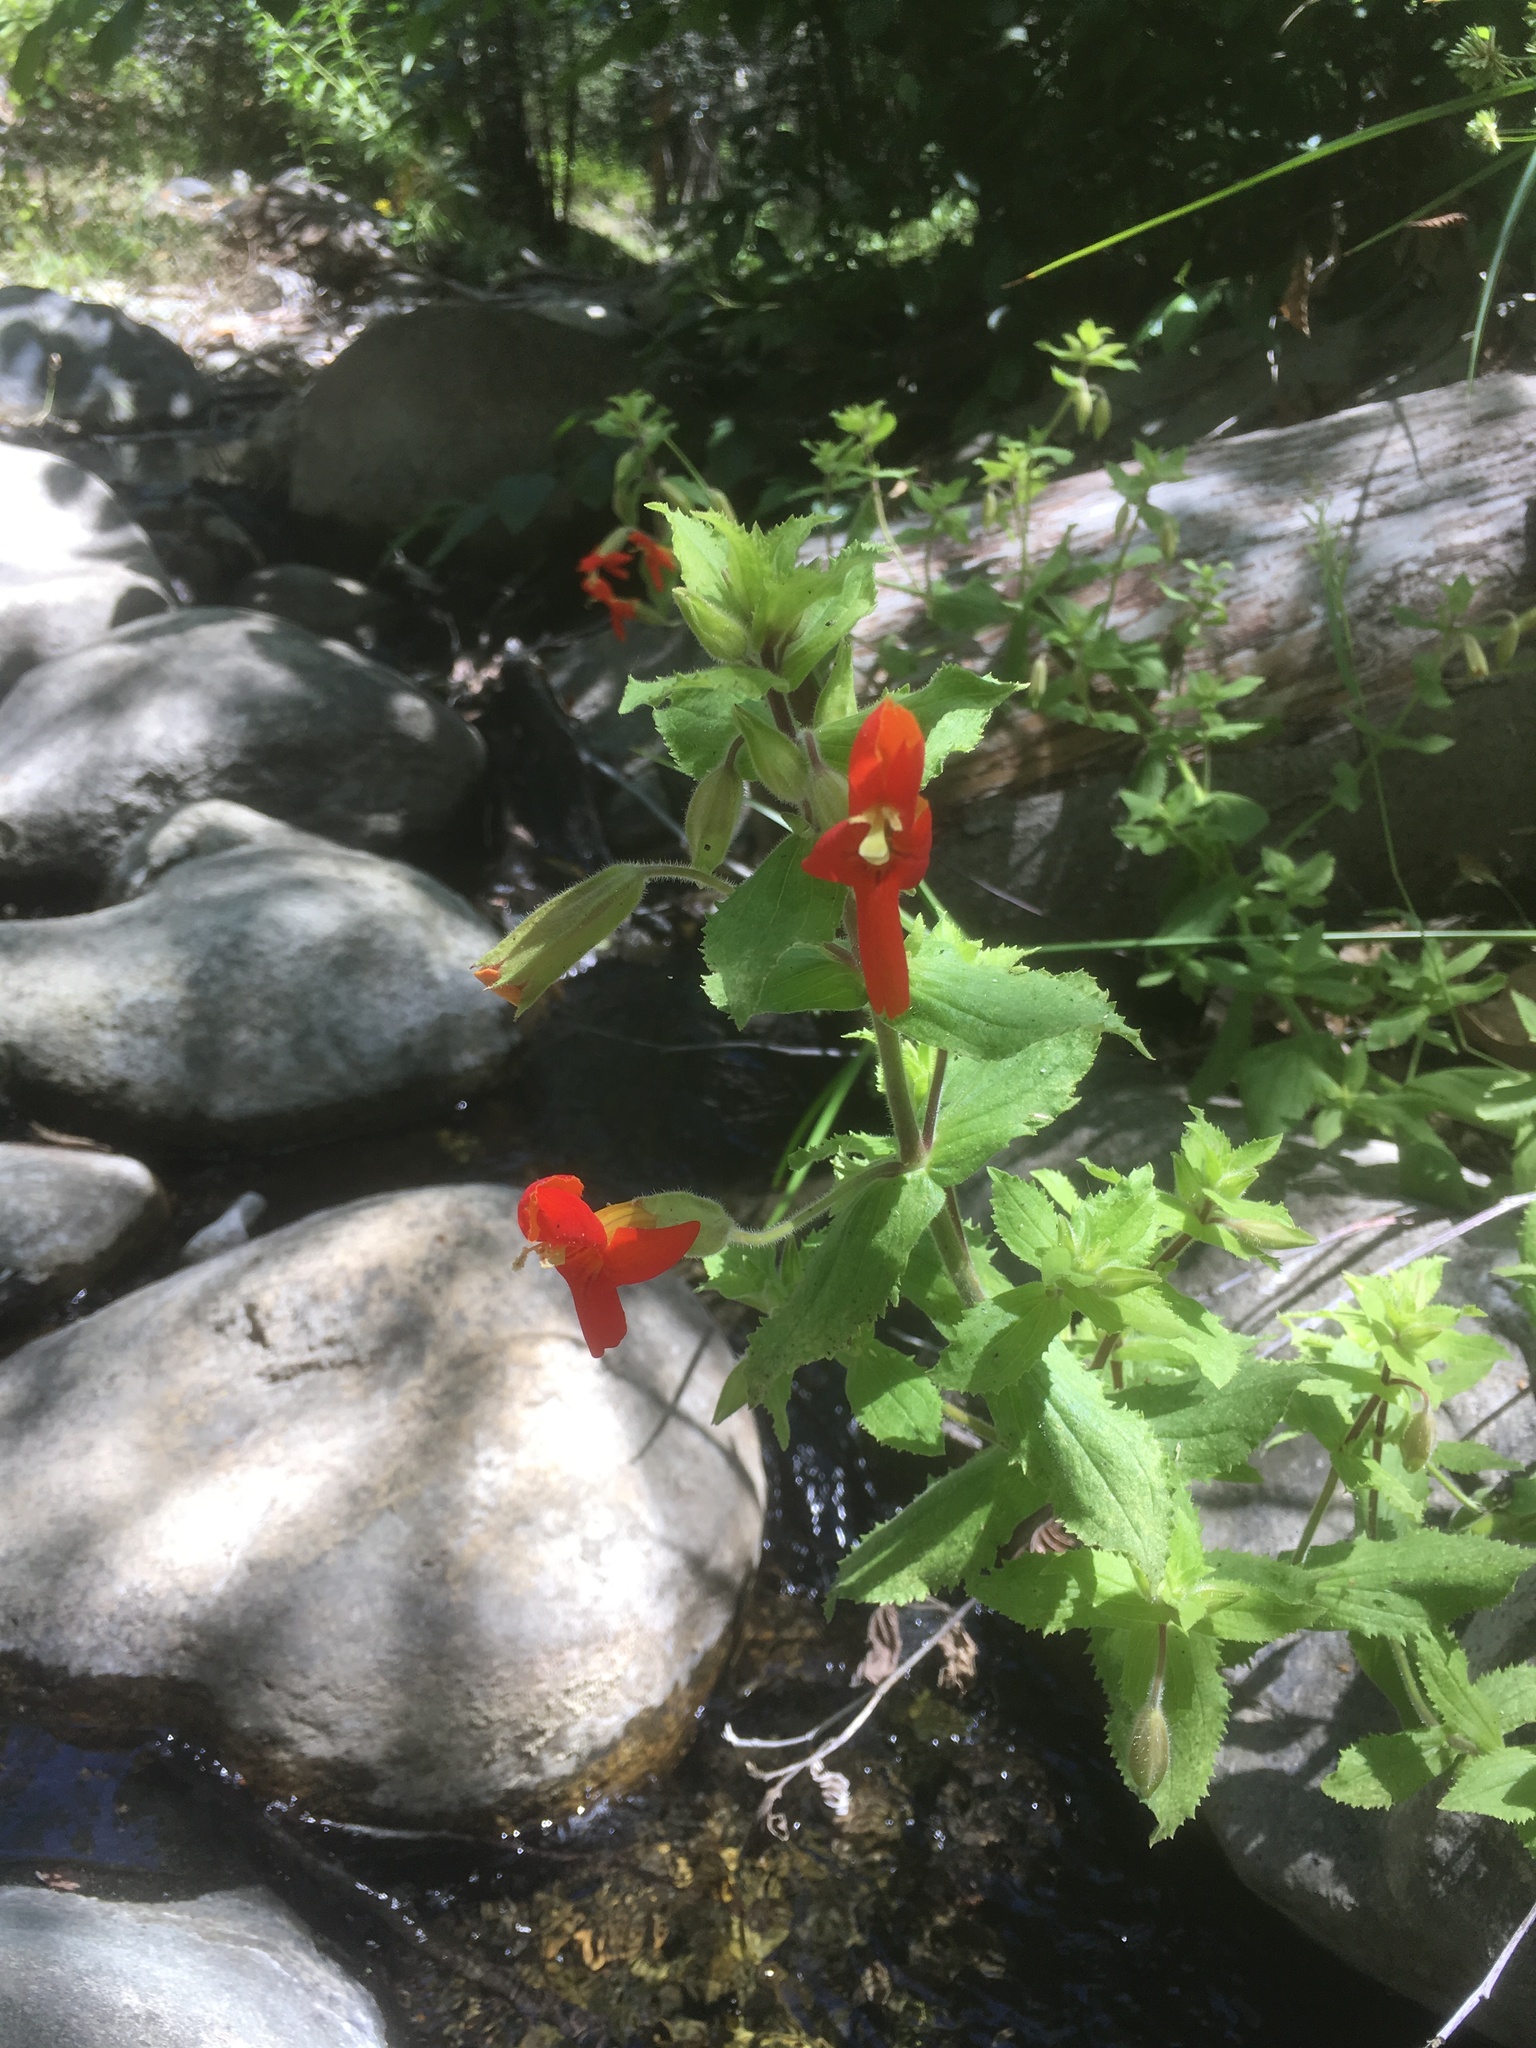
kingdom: Plantae
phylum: Tracheophyta
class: Magnoliopsida
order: Lamiales
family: Phrymaceae
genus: Erythranthe
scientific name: Erythranthe cardinalis
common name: Scarlet monkey-flower
